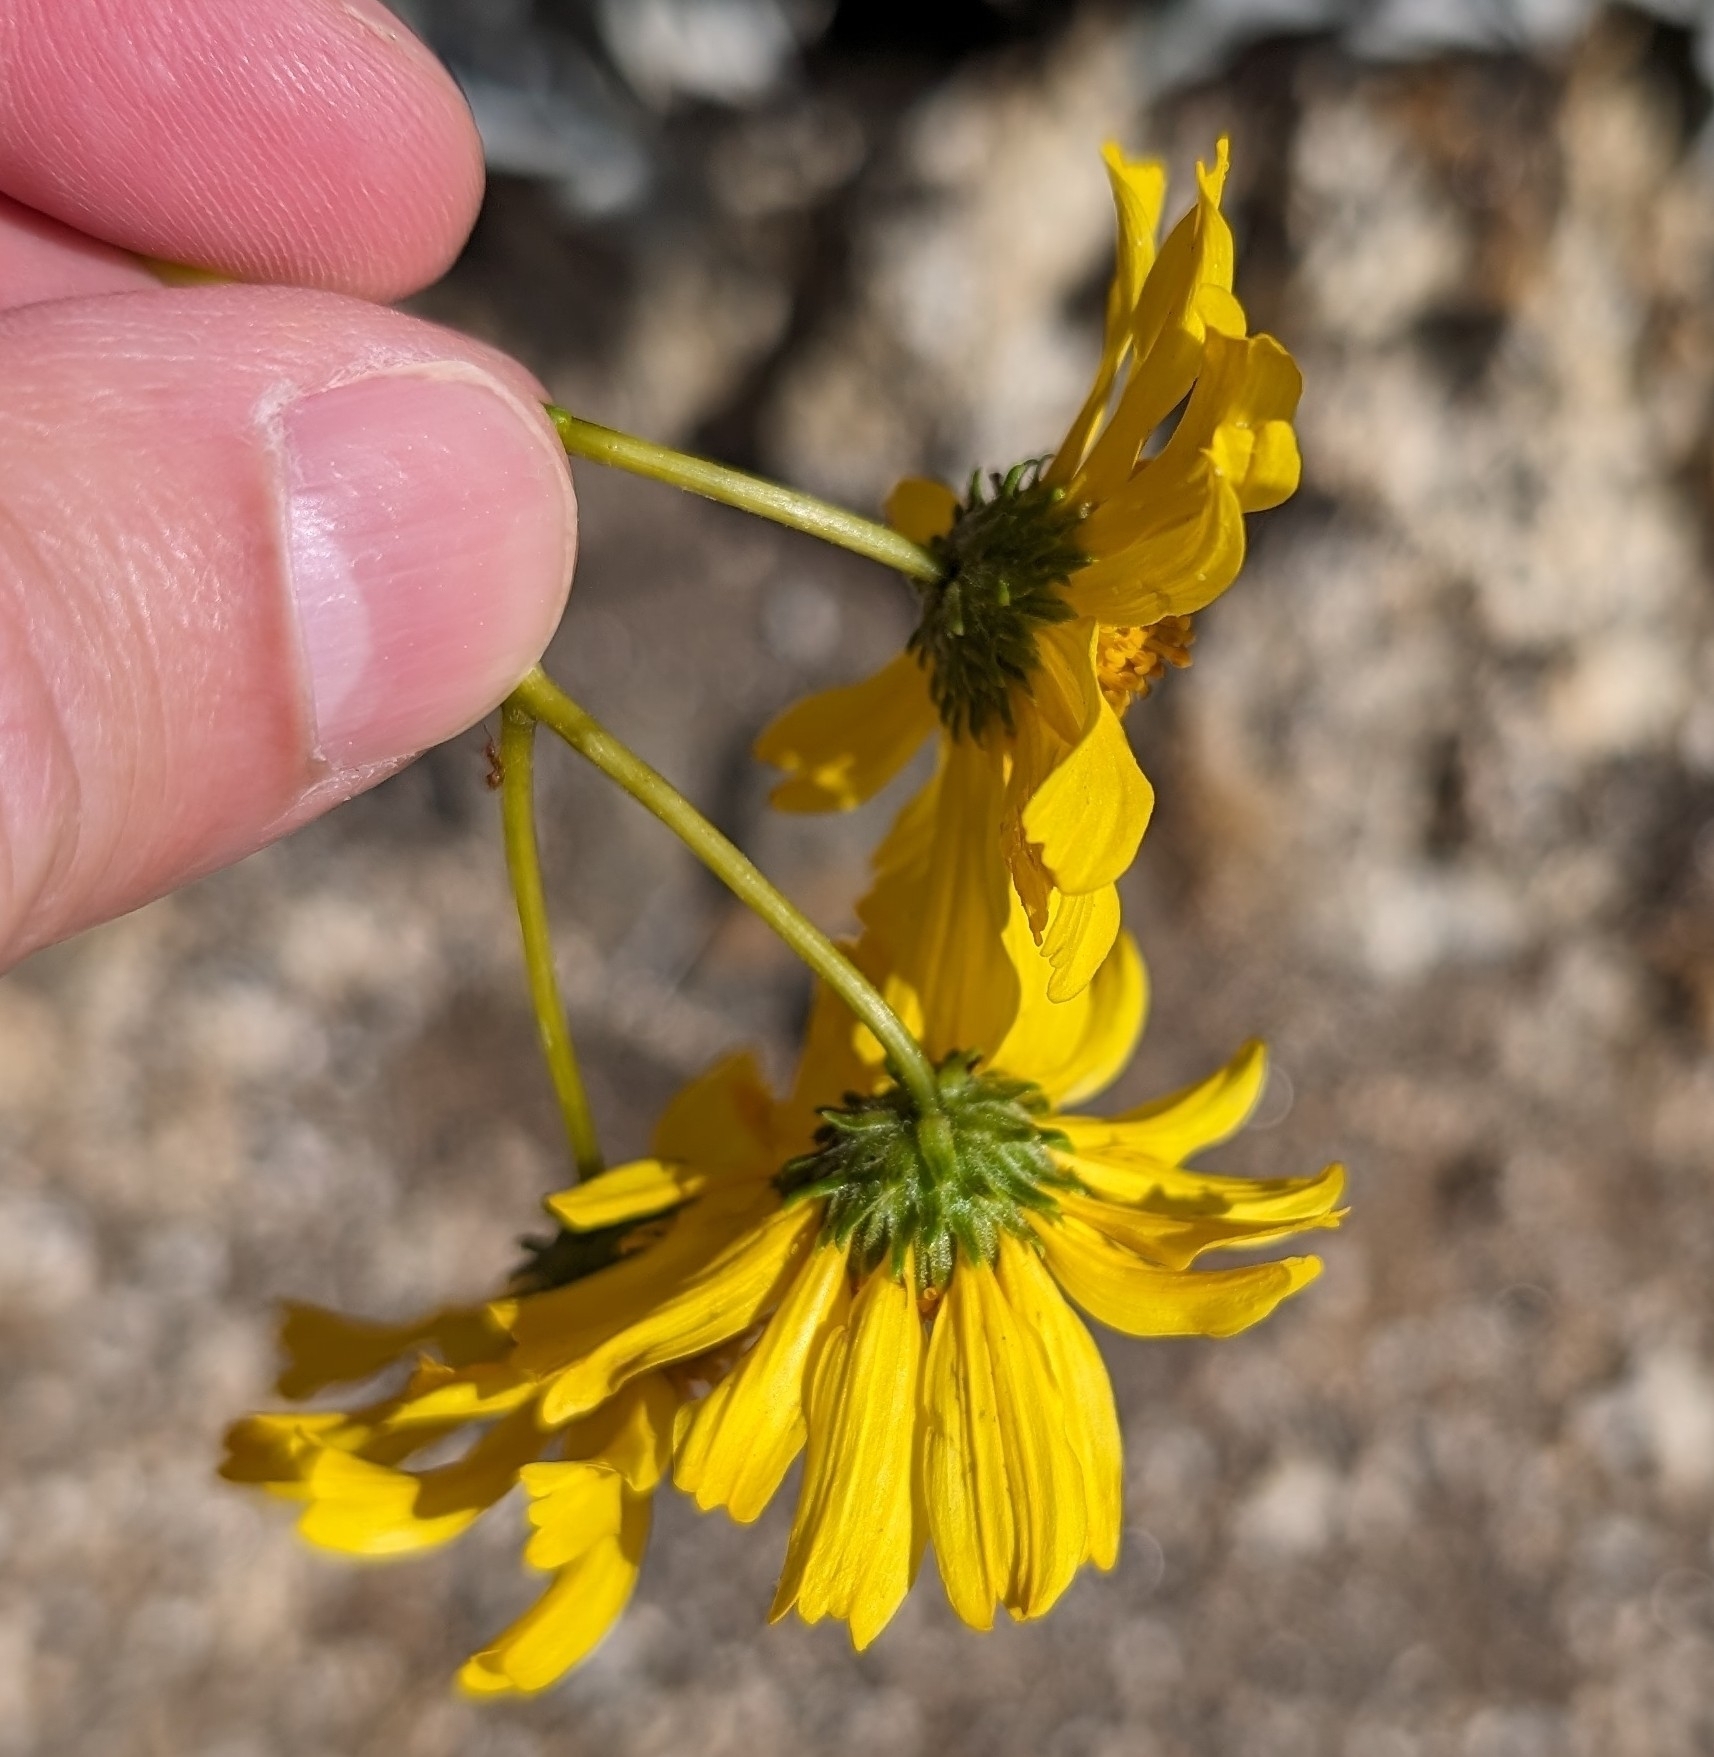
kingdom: Plantae
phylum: Tracheophyta
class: Magnoliopsida
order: Asterales
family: Asteraceae
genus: Encelia
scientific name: Encelia farinosa
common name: Brittlebush
